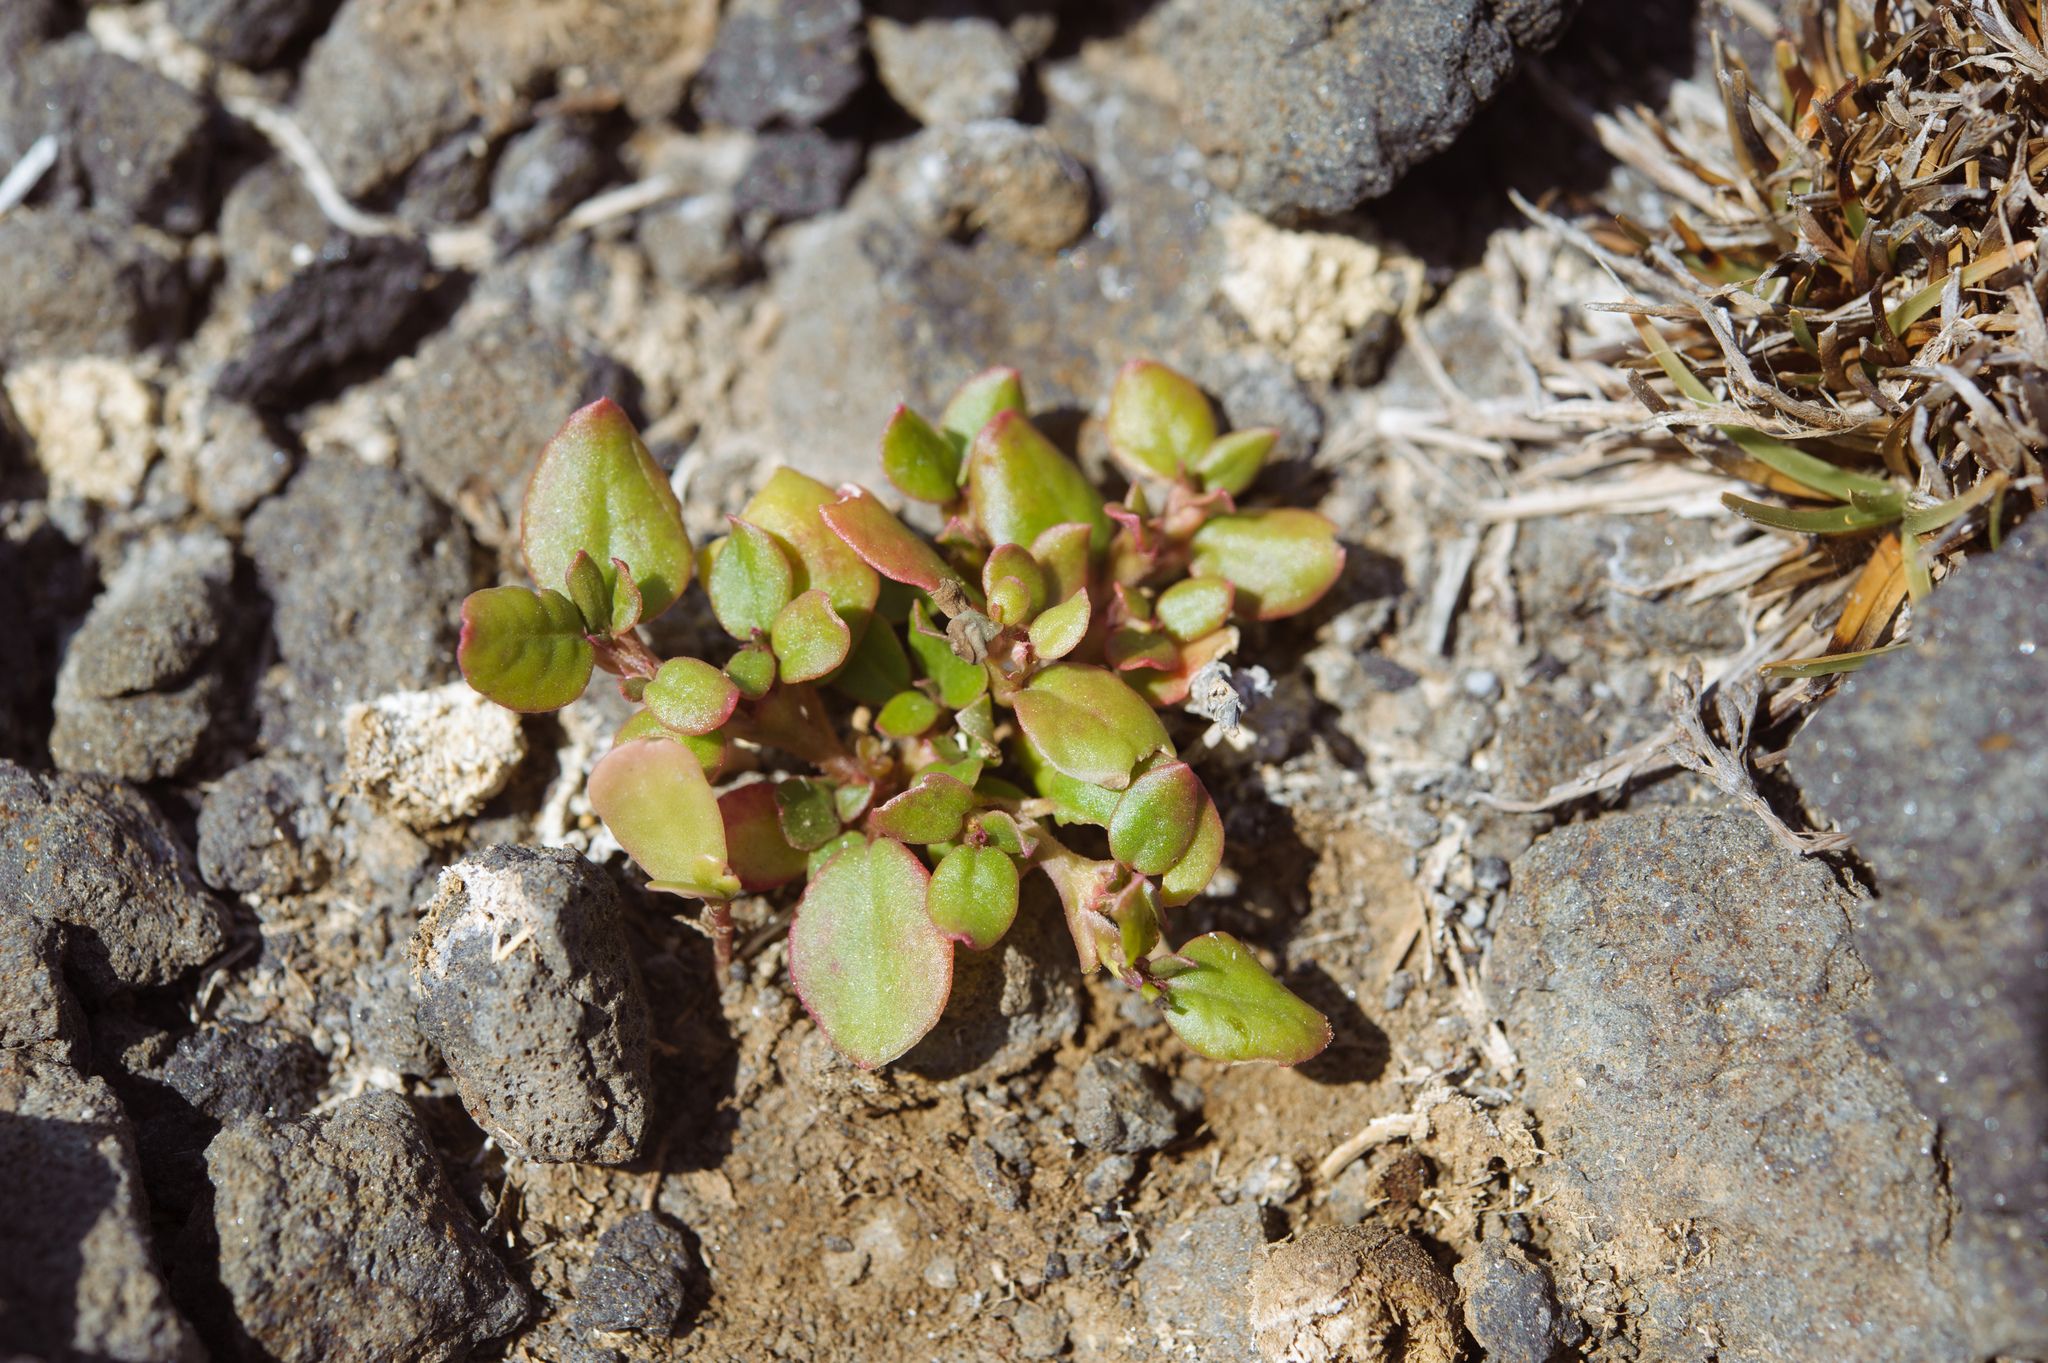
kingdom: Plantae
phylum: Tracheophyta
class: Magnoliopsida
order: Caryophyllales
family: Aizoaceae
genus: Trianthema
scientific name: Trianthema portulacastrum
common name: Desert horsepurslane
